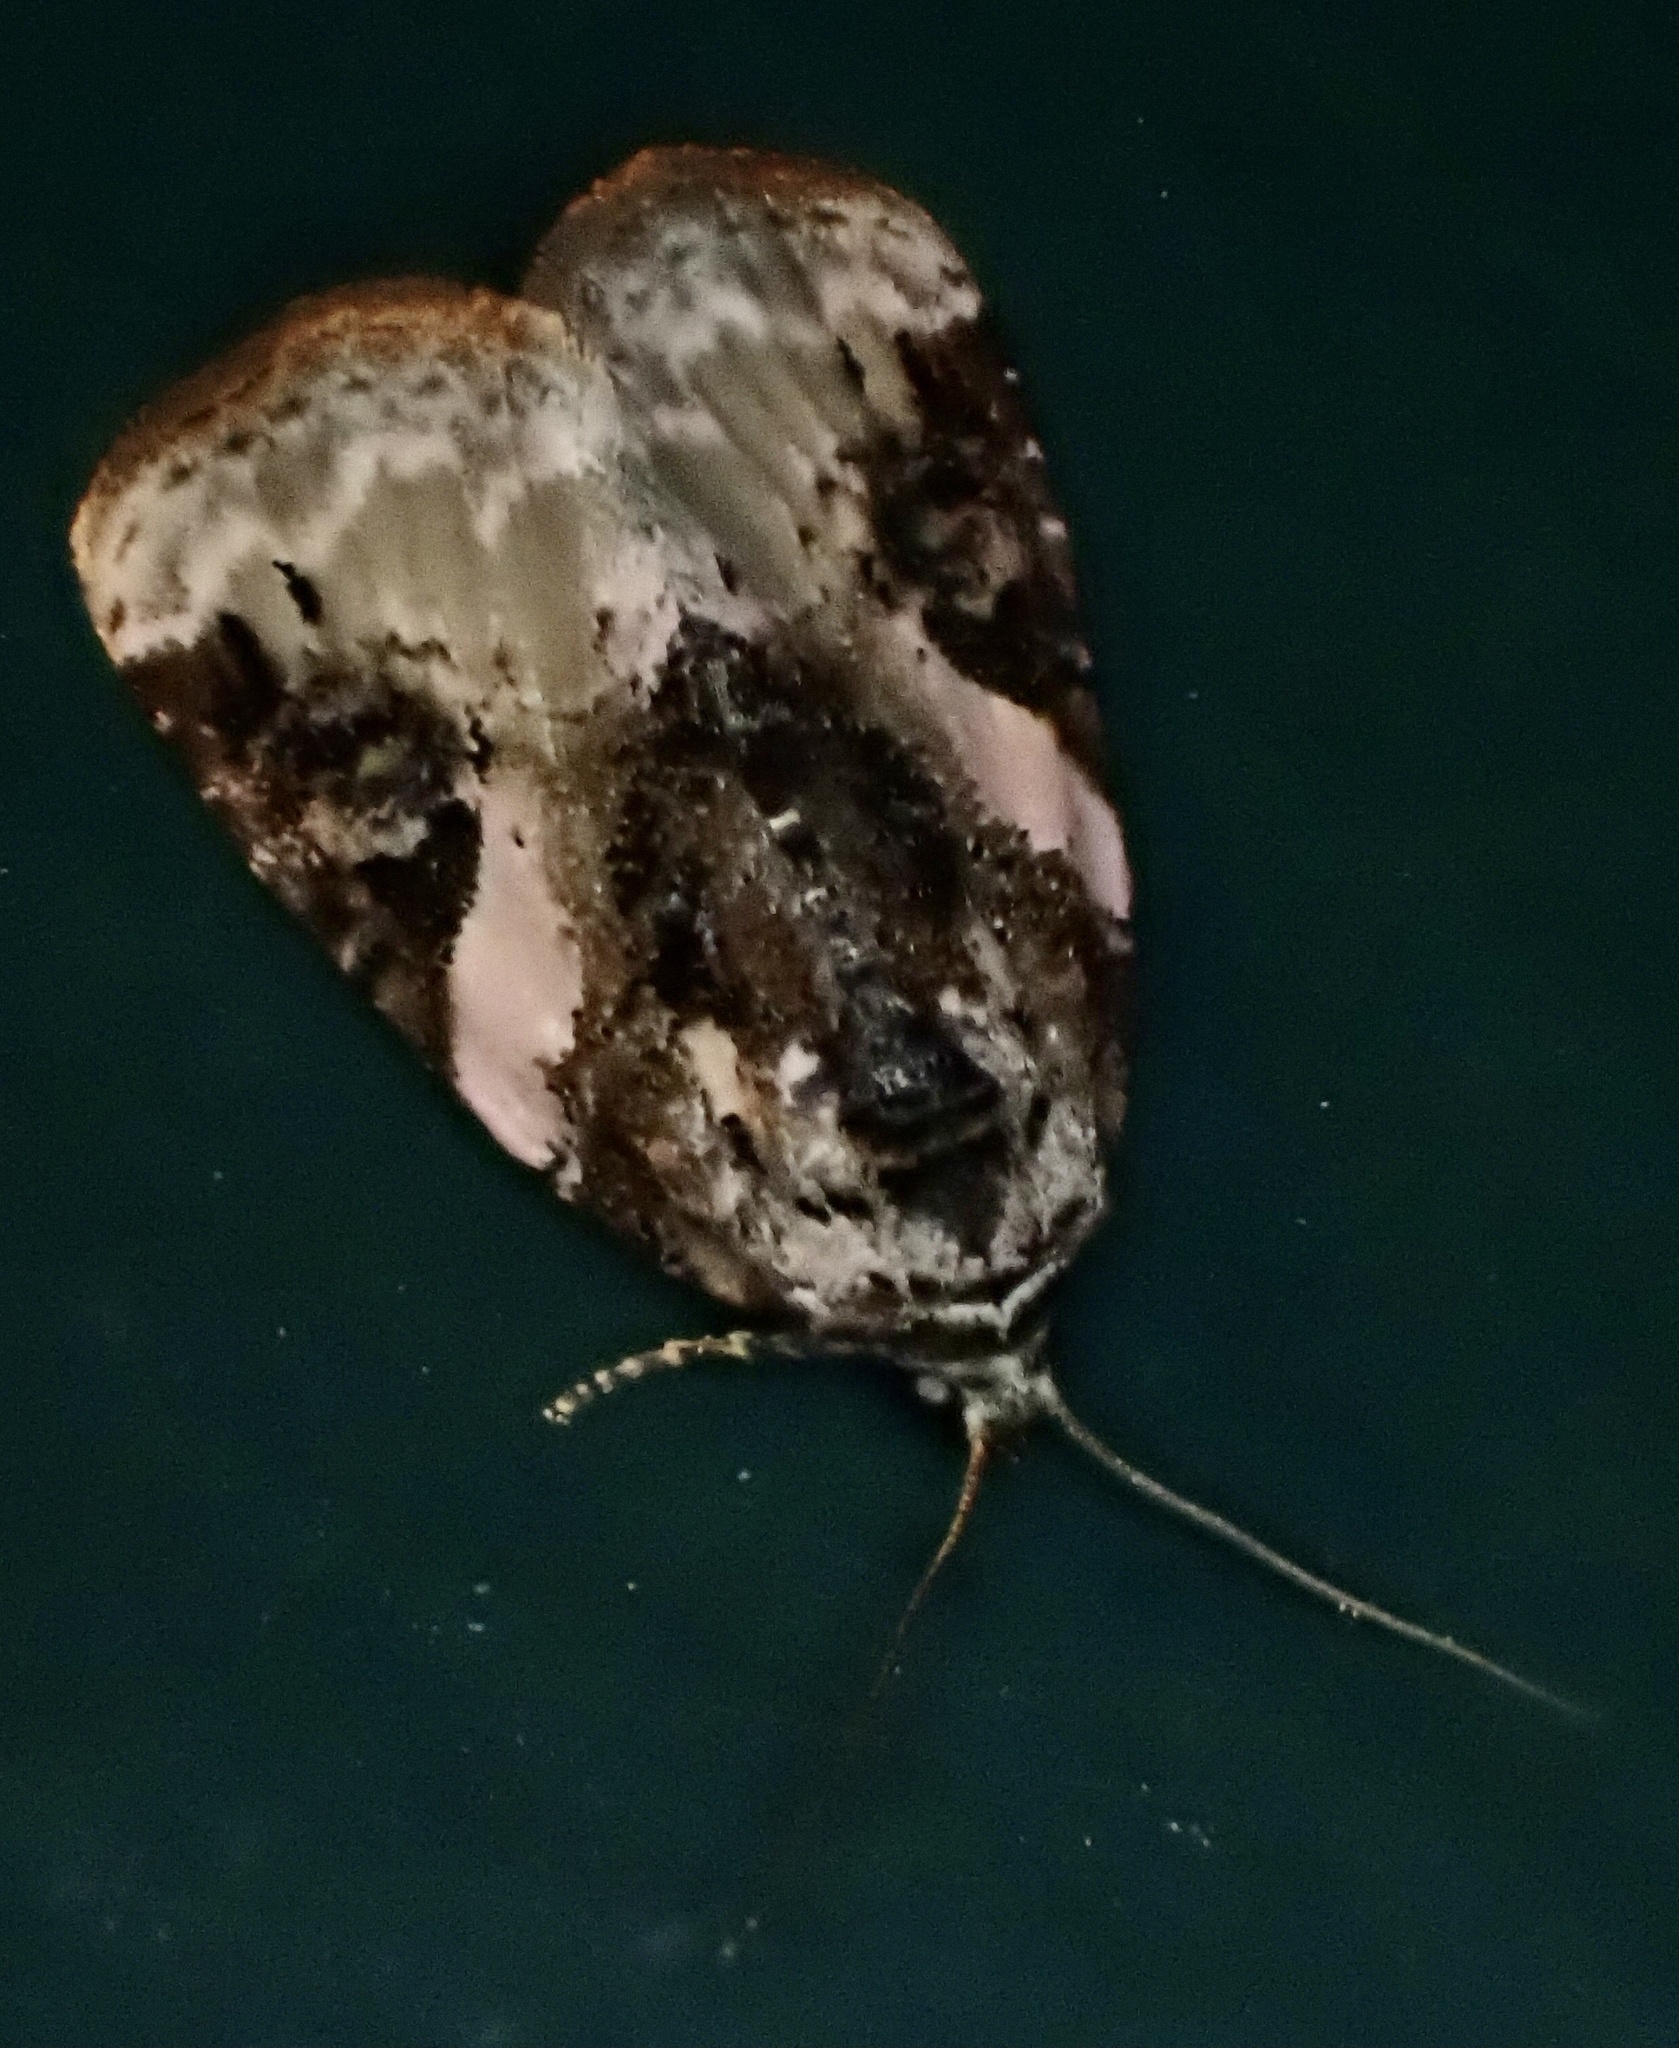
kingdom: Animalia
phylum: Arthropoda
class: Insecta
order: Lepidoptera
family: Noctuidae
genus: Pseudeustrotia
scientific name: Pseudeustrotia carneola
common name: Pink-barred lithacodia moth
